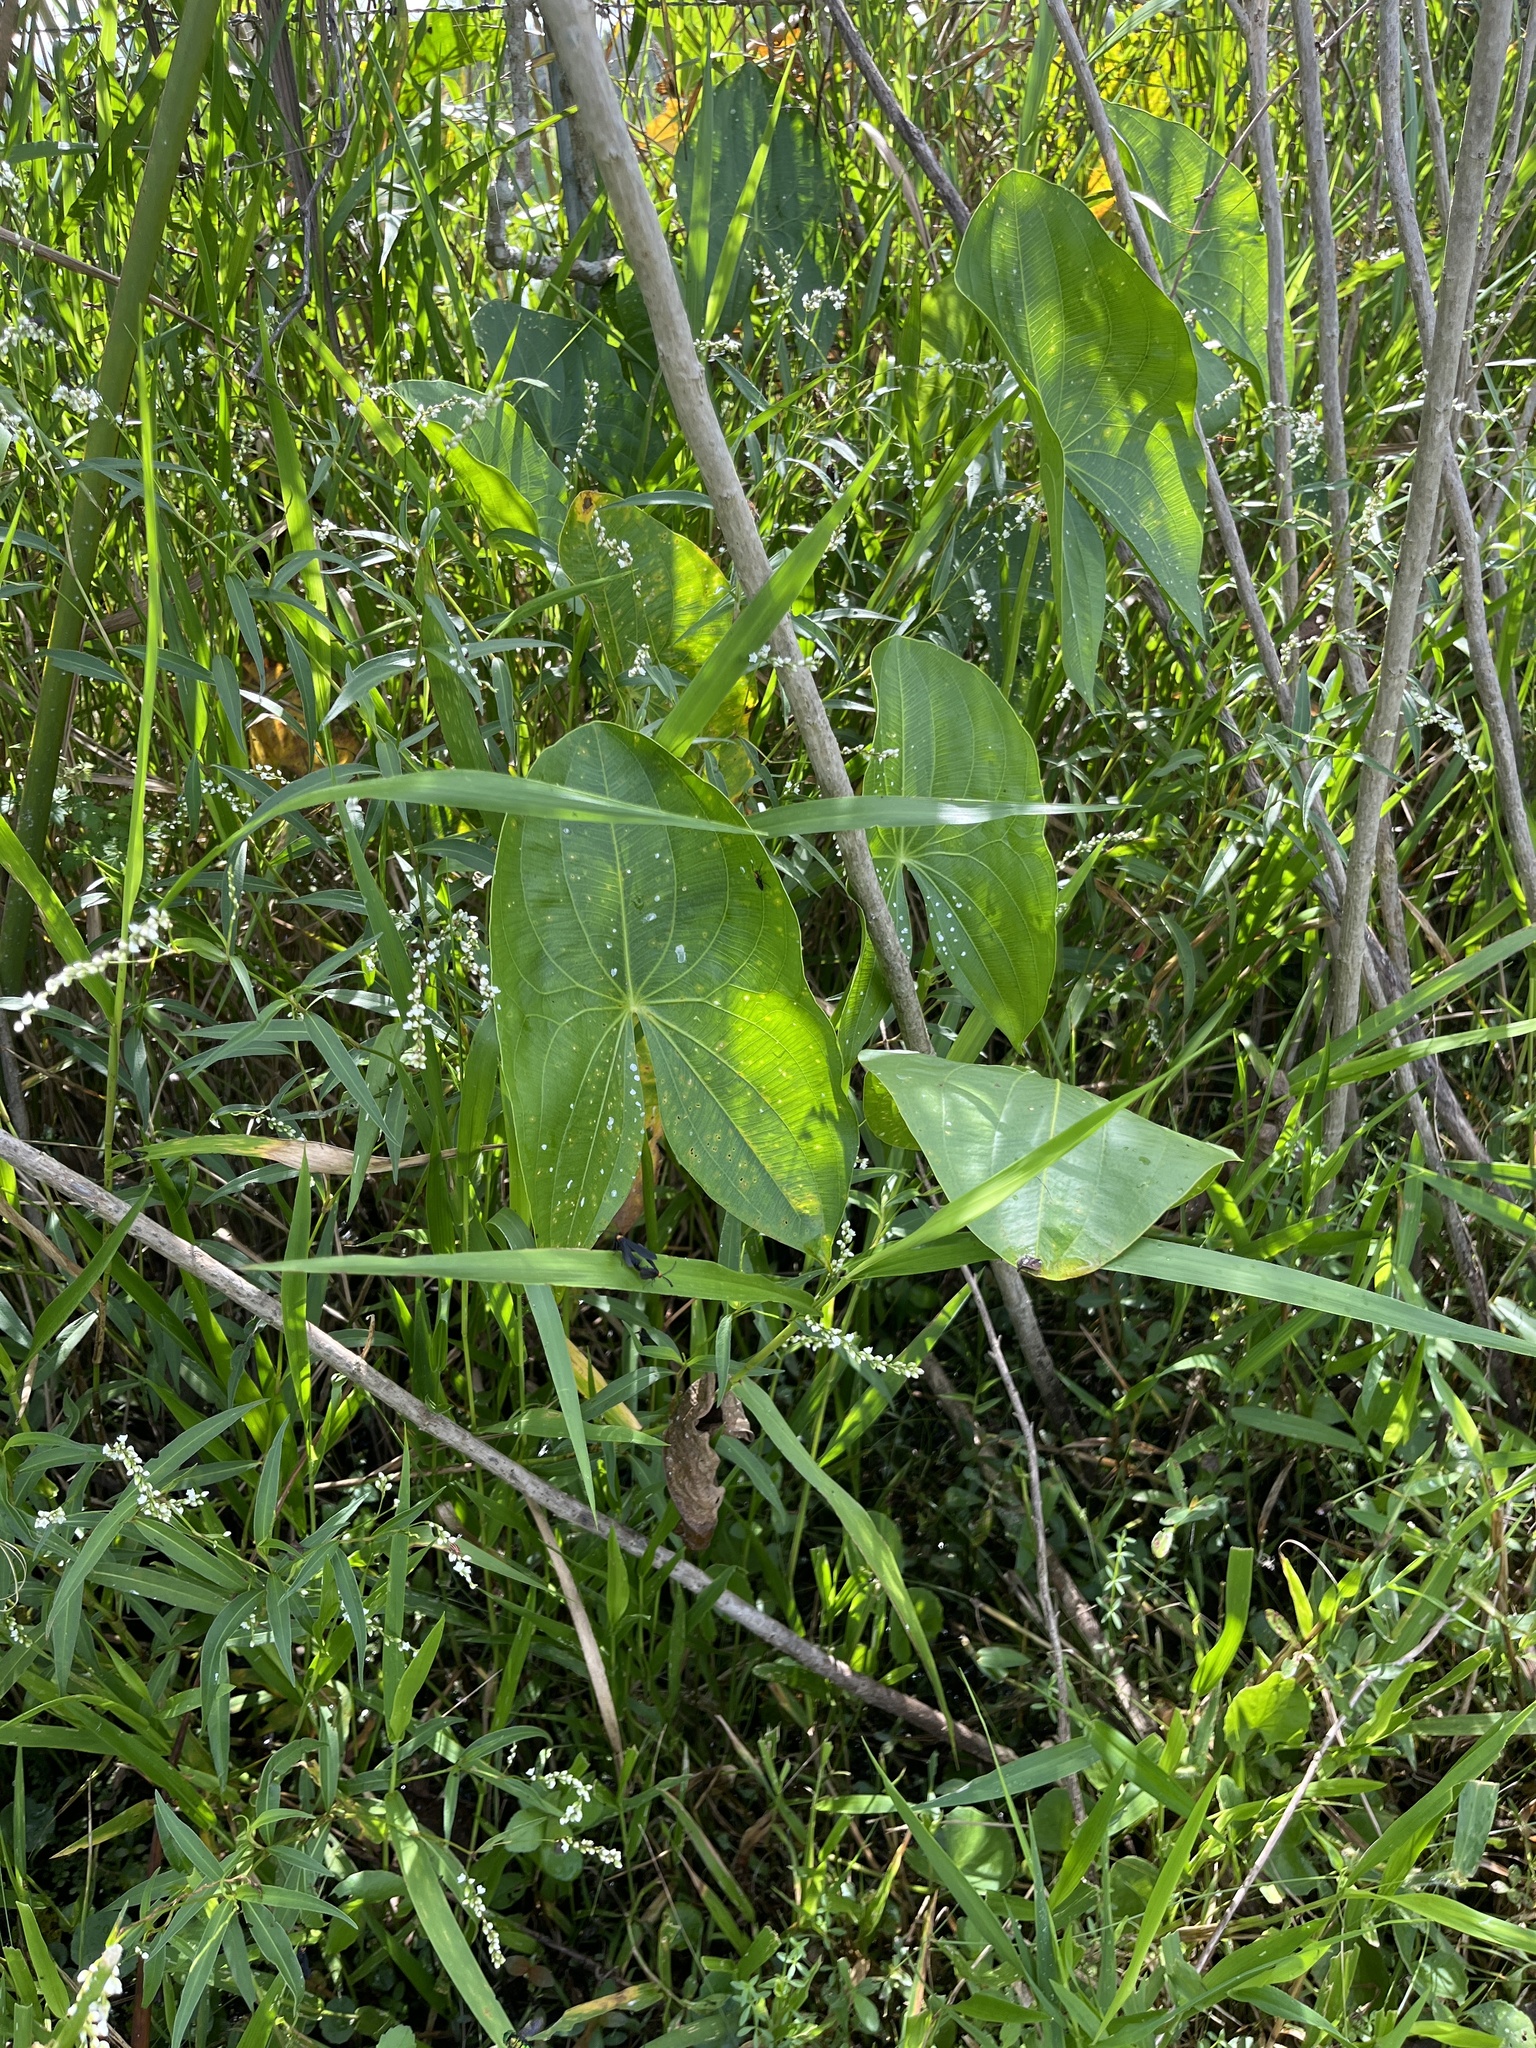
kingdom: Plantae
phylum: Tracheophyta
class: Liliopsida
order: Alismatales
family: Alismataceae
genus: Sagittaria
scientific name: Sagittaria latifolia
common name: Duck-potato
